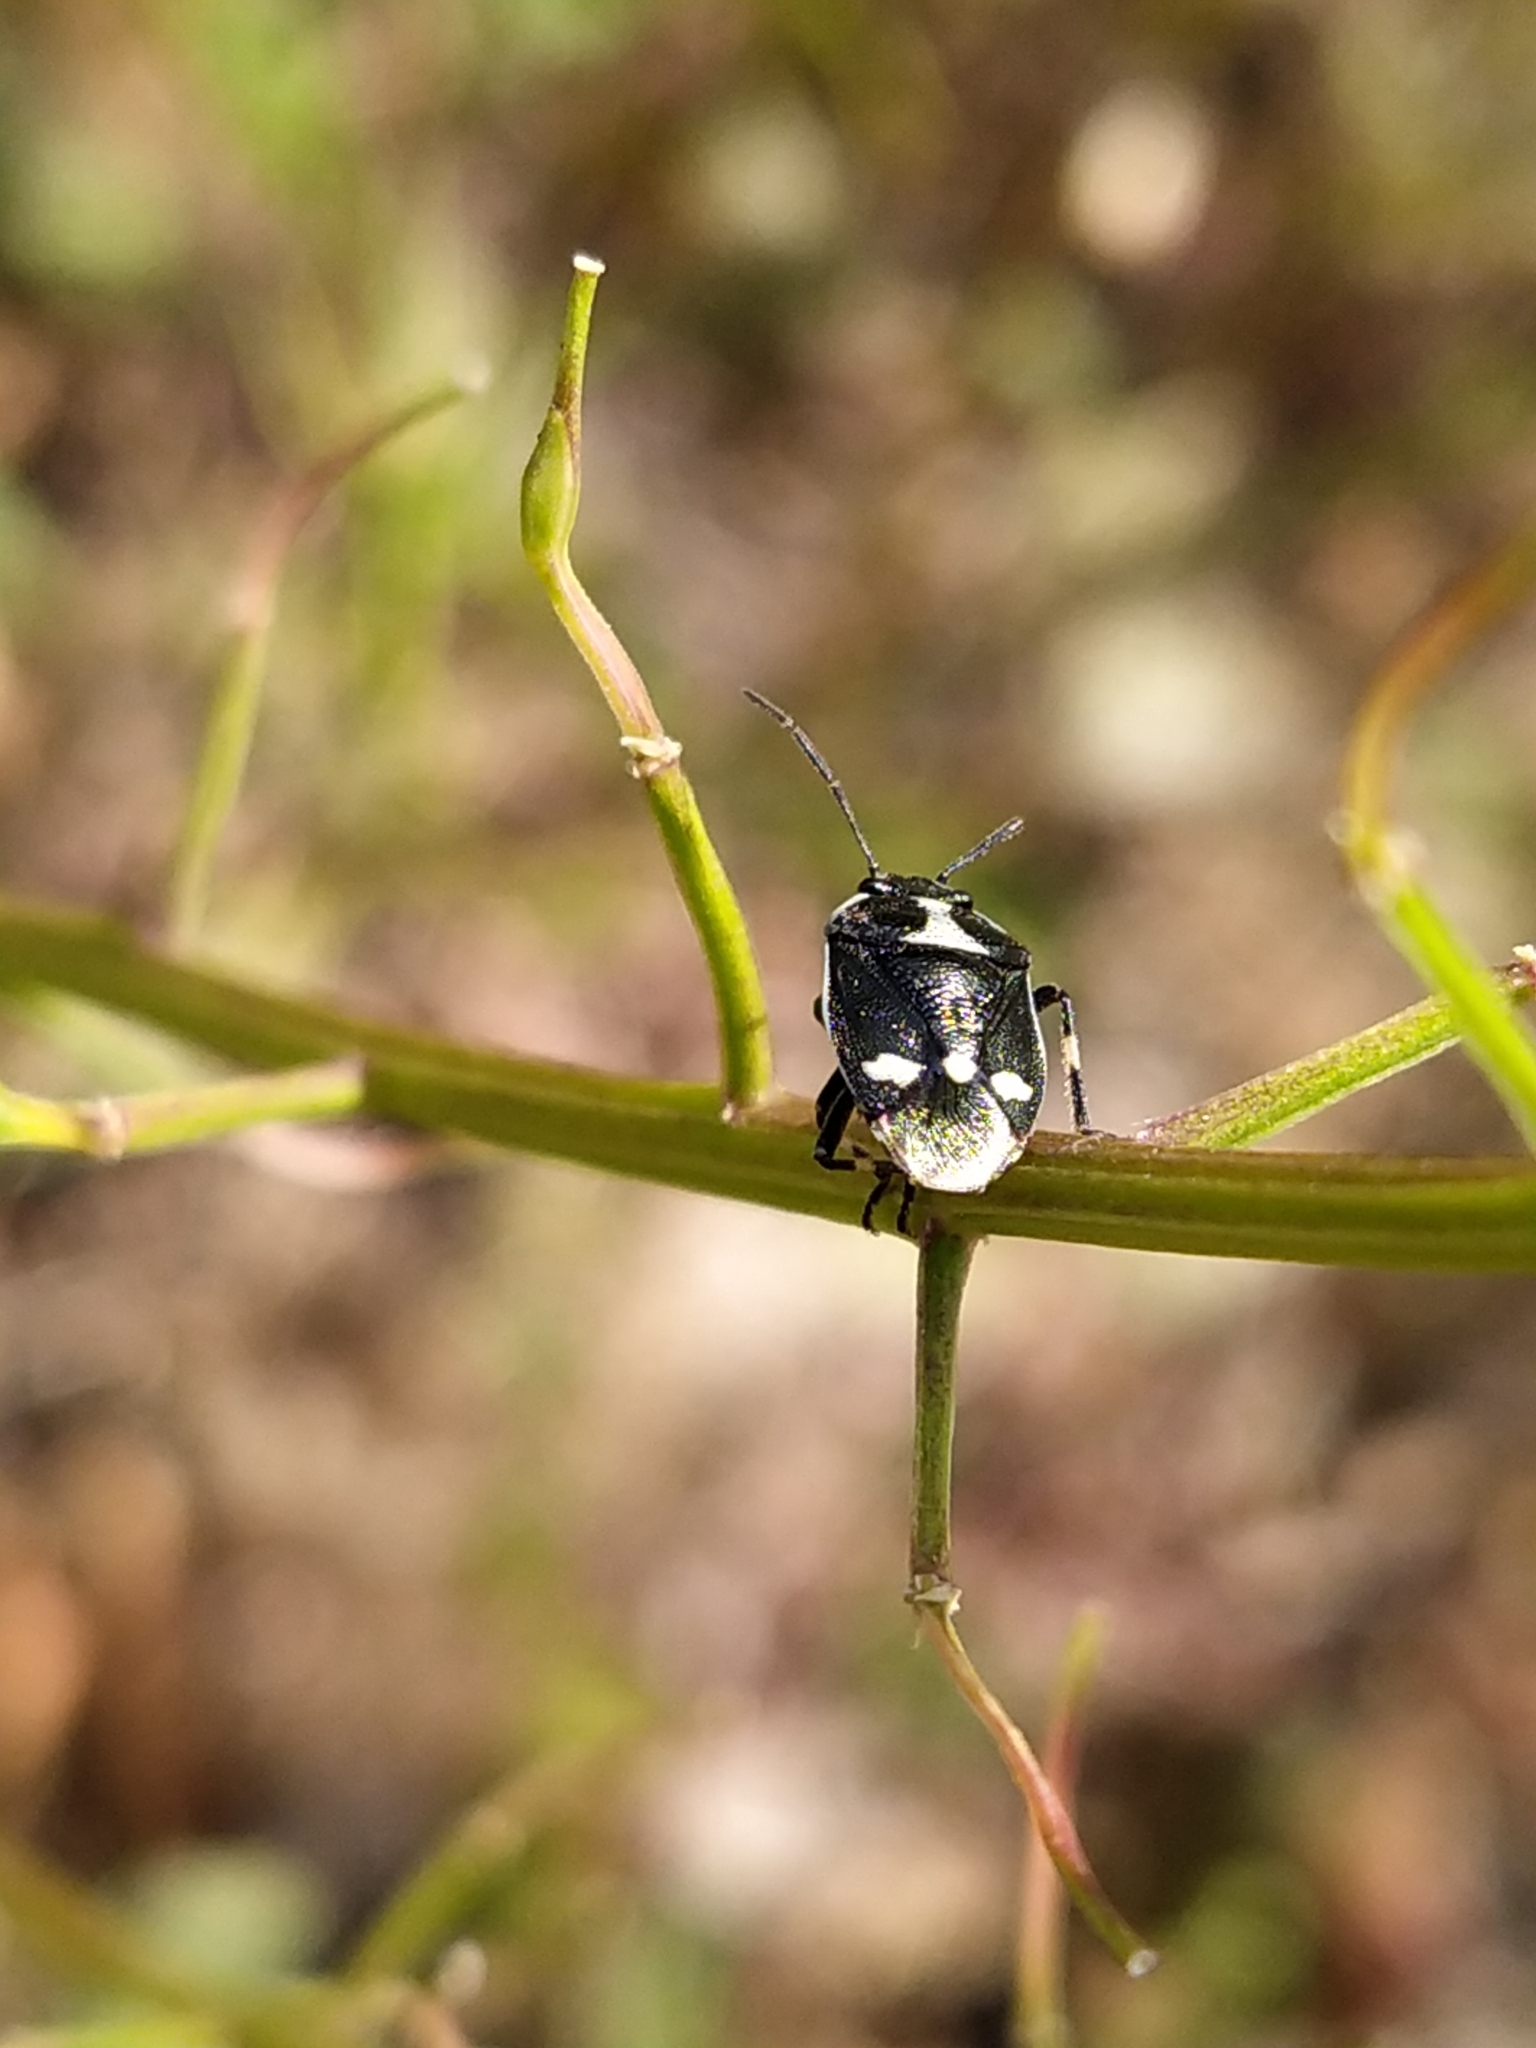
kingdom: Animalia
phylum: Arthropoda
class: Insecta
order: Hemiptera
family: Pentatomidae
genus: Eurydema
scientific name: Eurydema oleracea
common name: Cabbage bug
